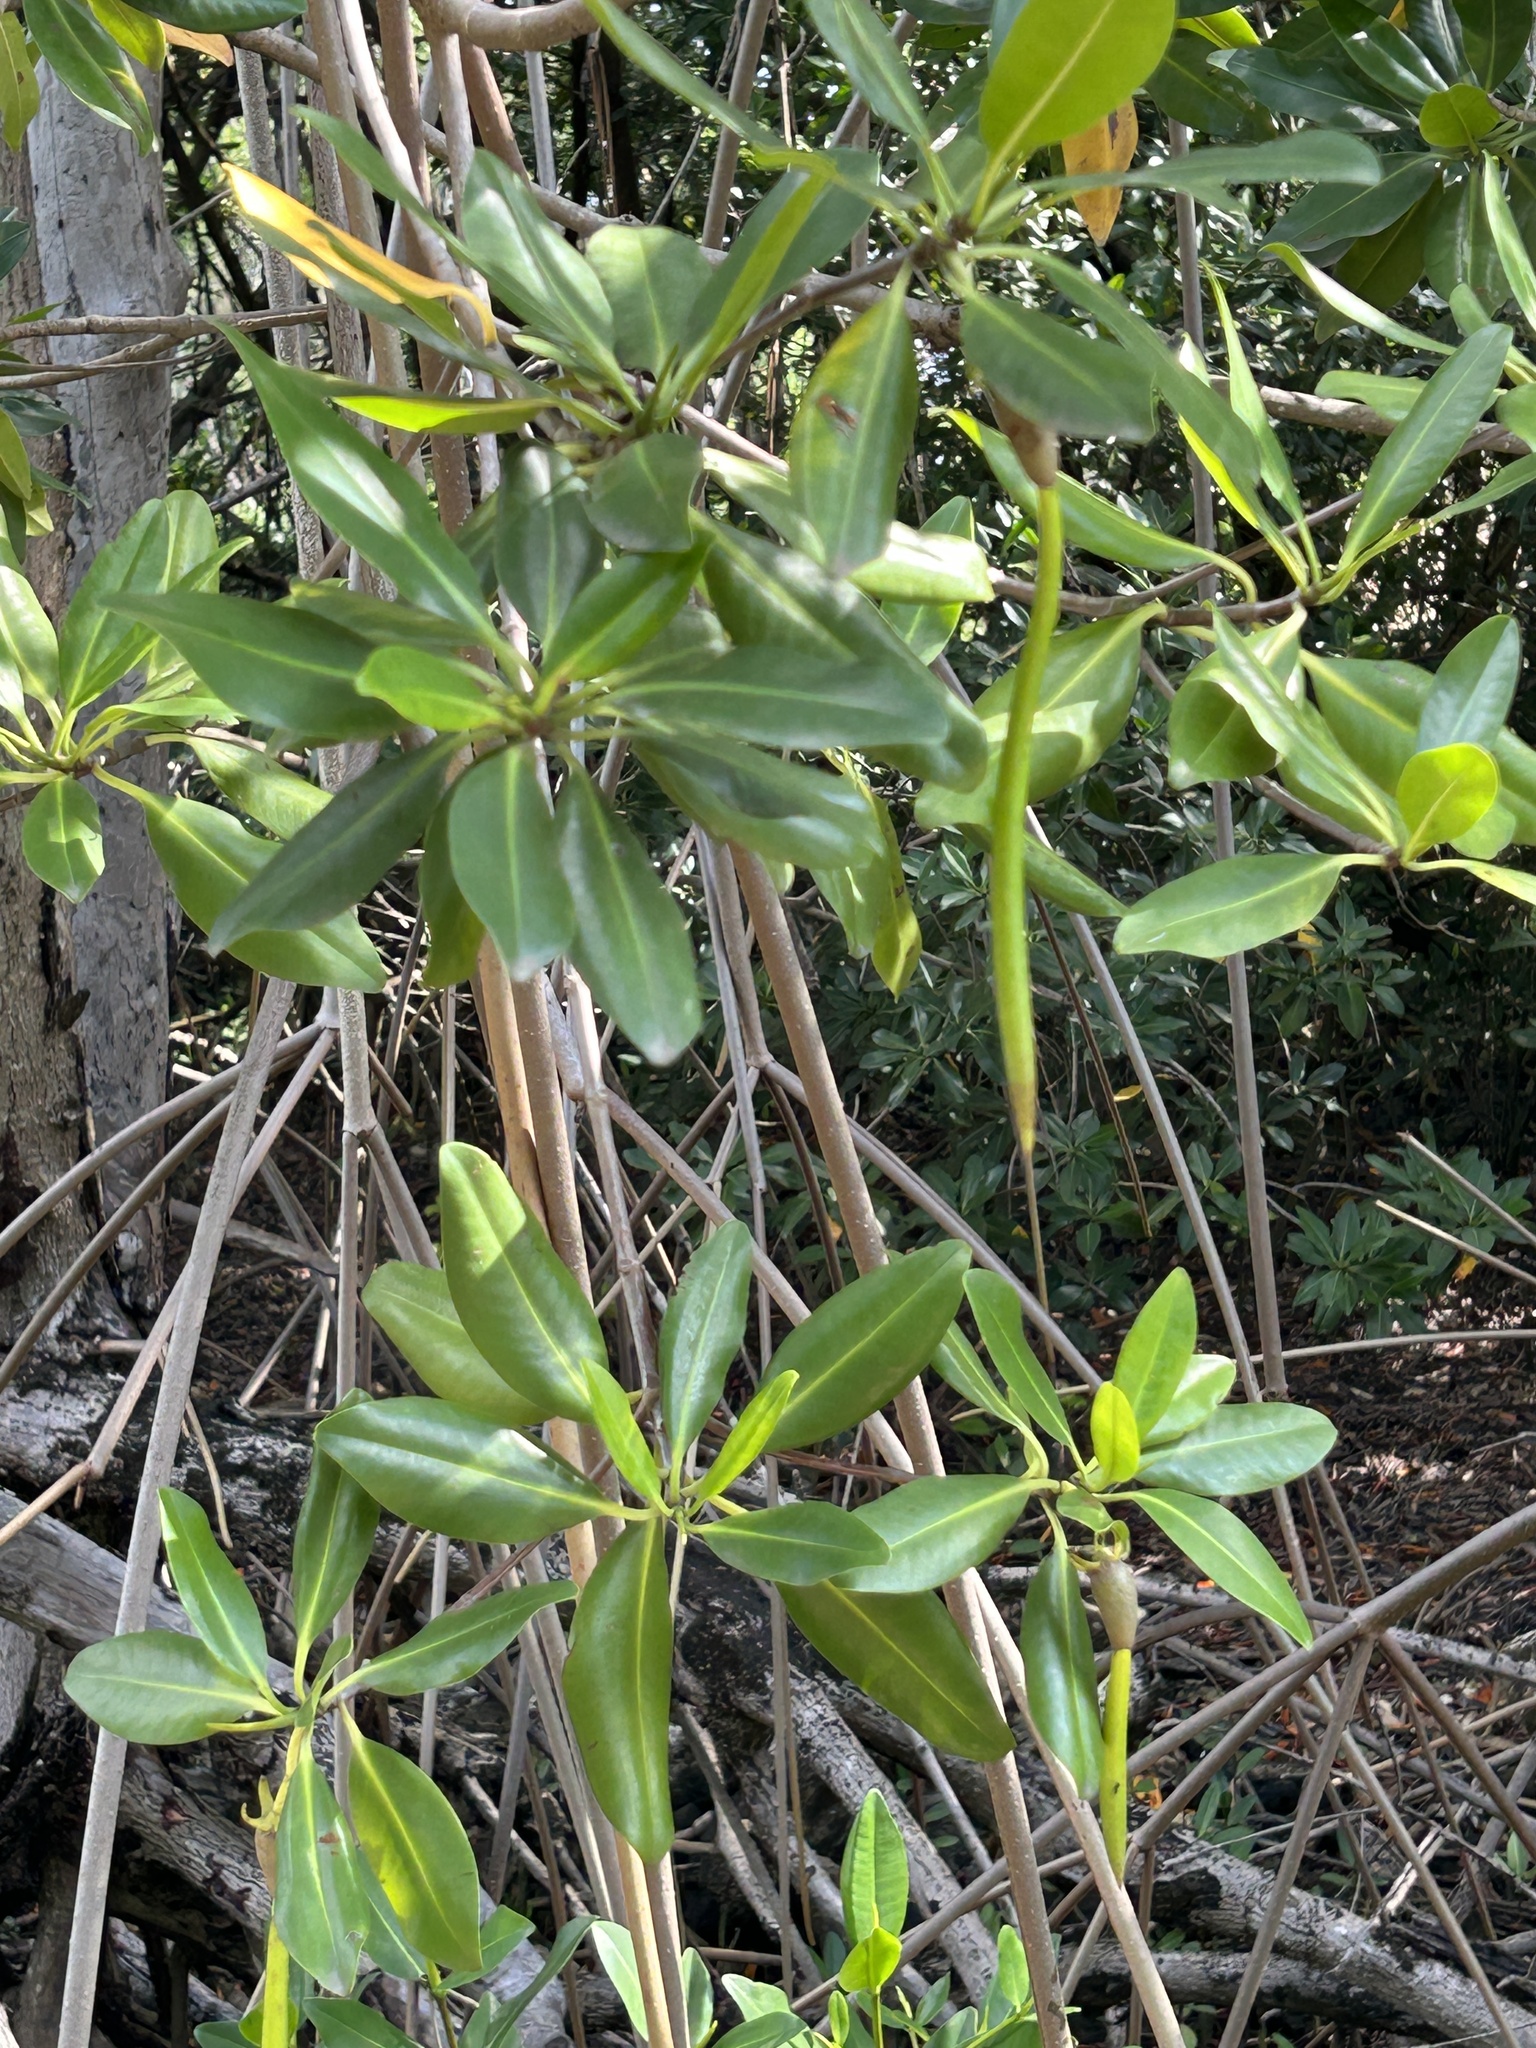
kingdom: Plantae
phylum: Tracheophyta
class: Magnoliopsida
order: Malpighiales
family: Rhizophoraceae
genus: Rhizophora
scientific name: Rhizophora mangle
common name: Red mangrove
